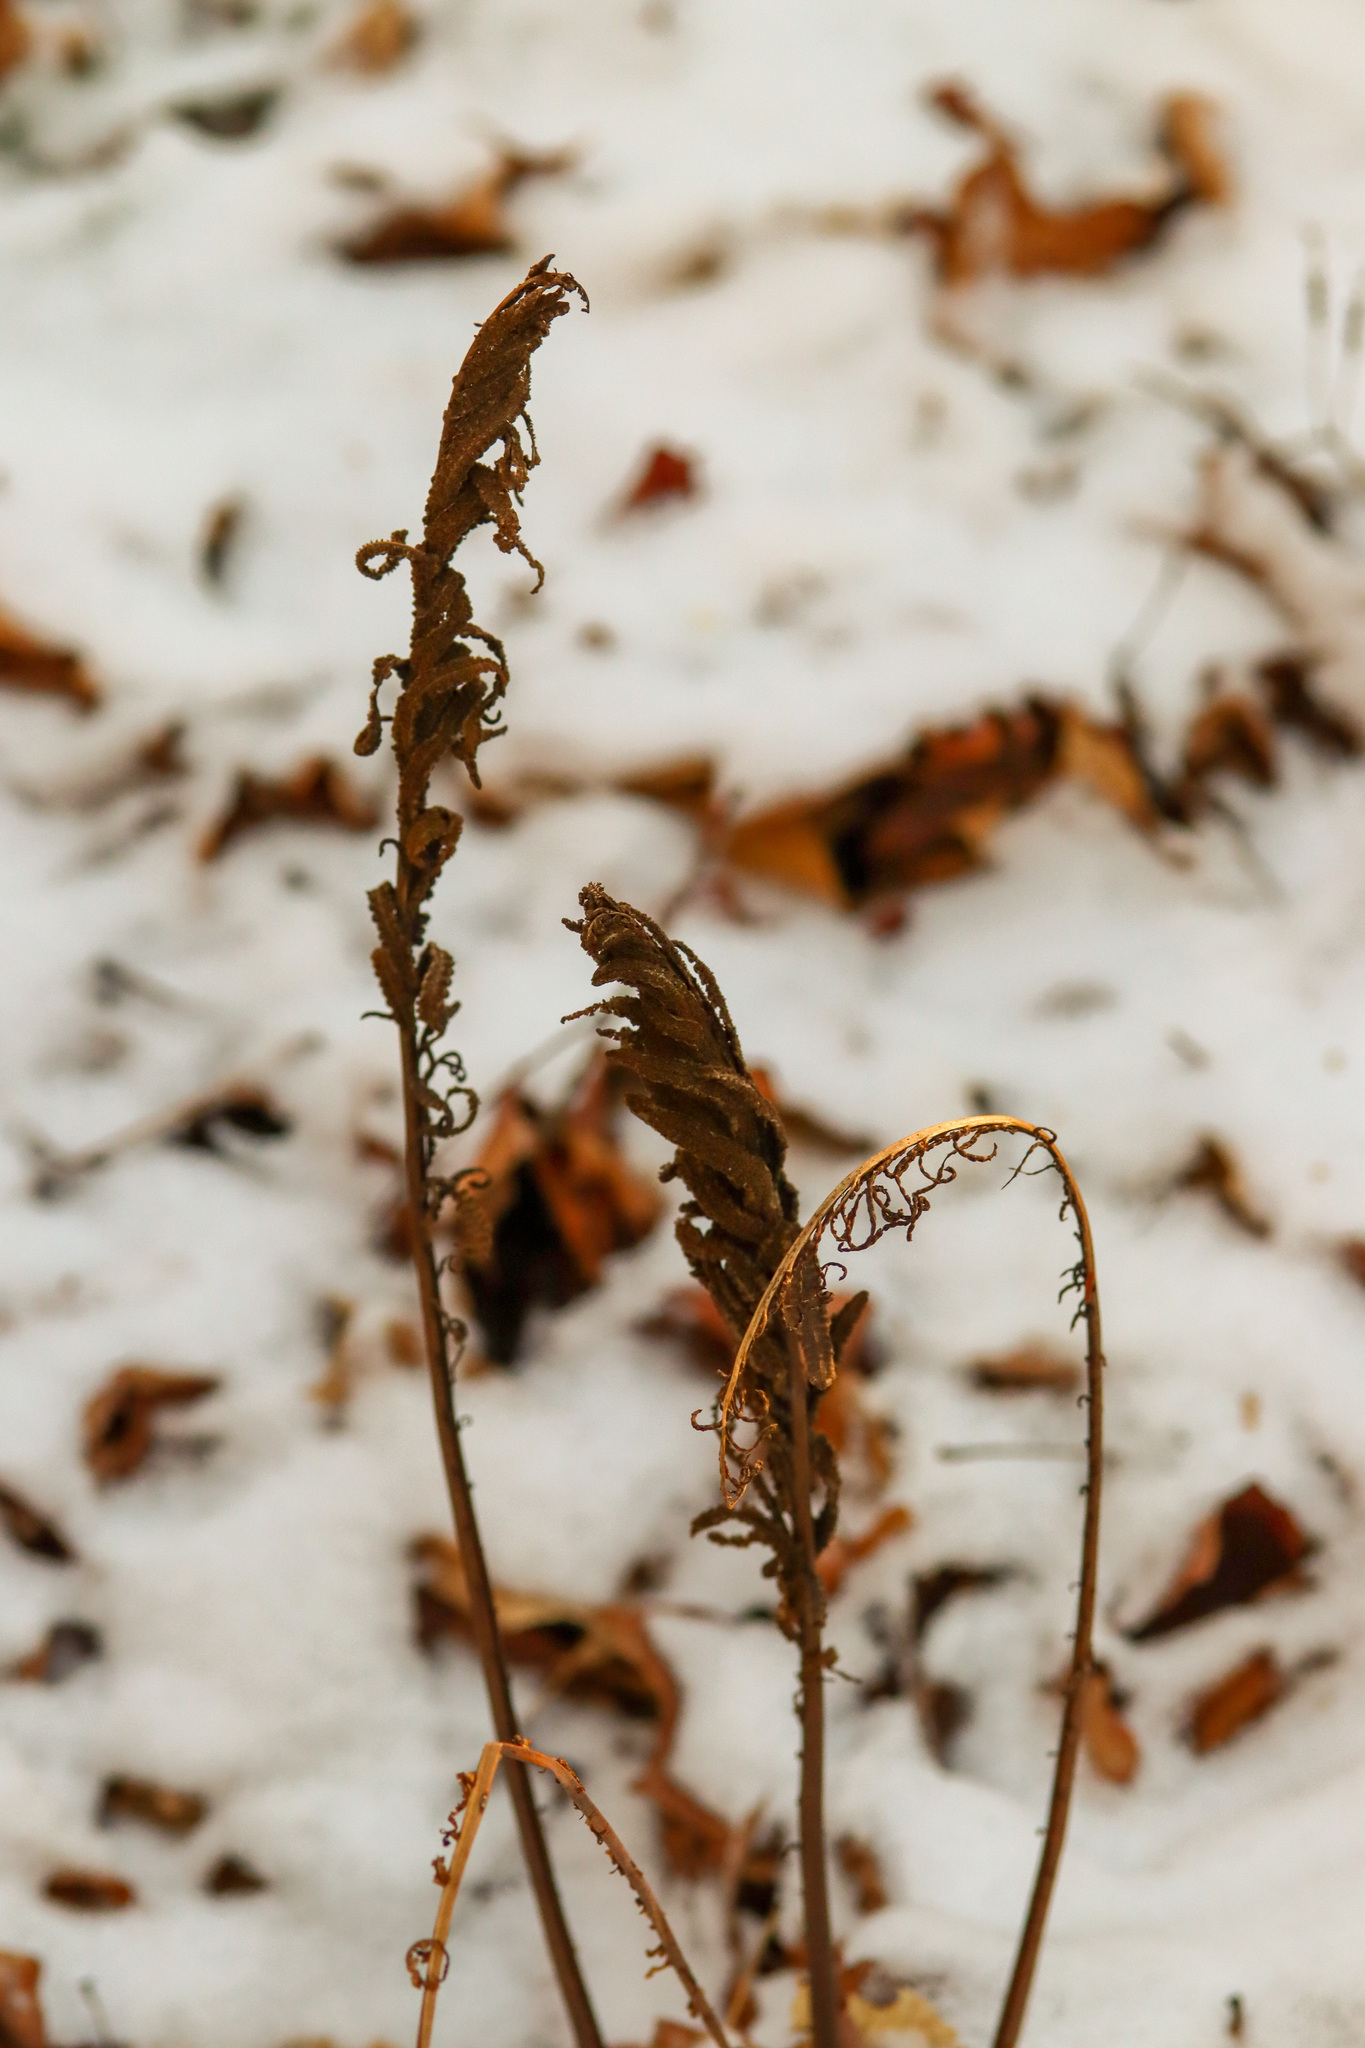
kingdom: Plantae
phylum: Tracheophyta
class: Polypodiopsida
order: Polypodiales
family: Onocleaceae
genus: Matteuccia
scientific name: Matteuccia struthiopteris
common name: Ostrich fern
